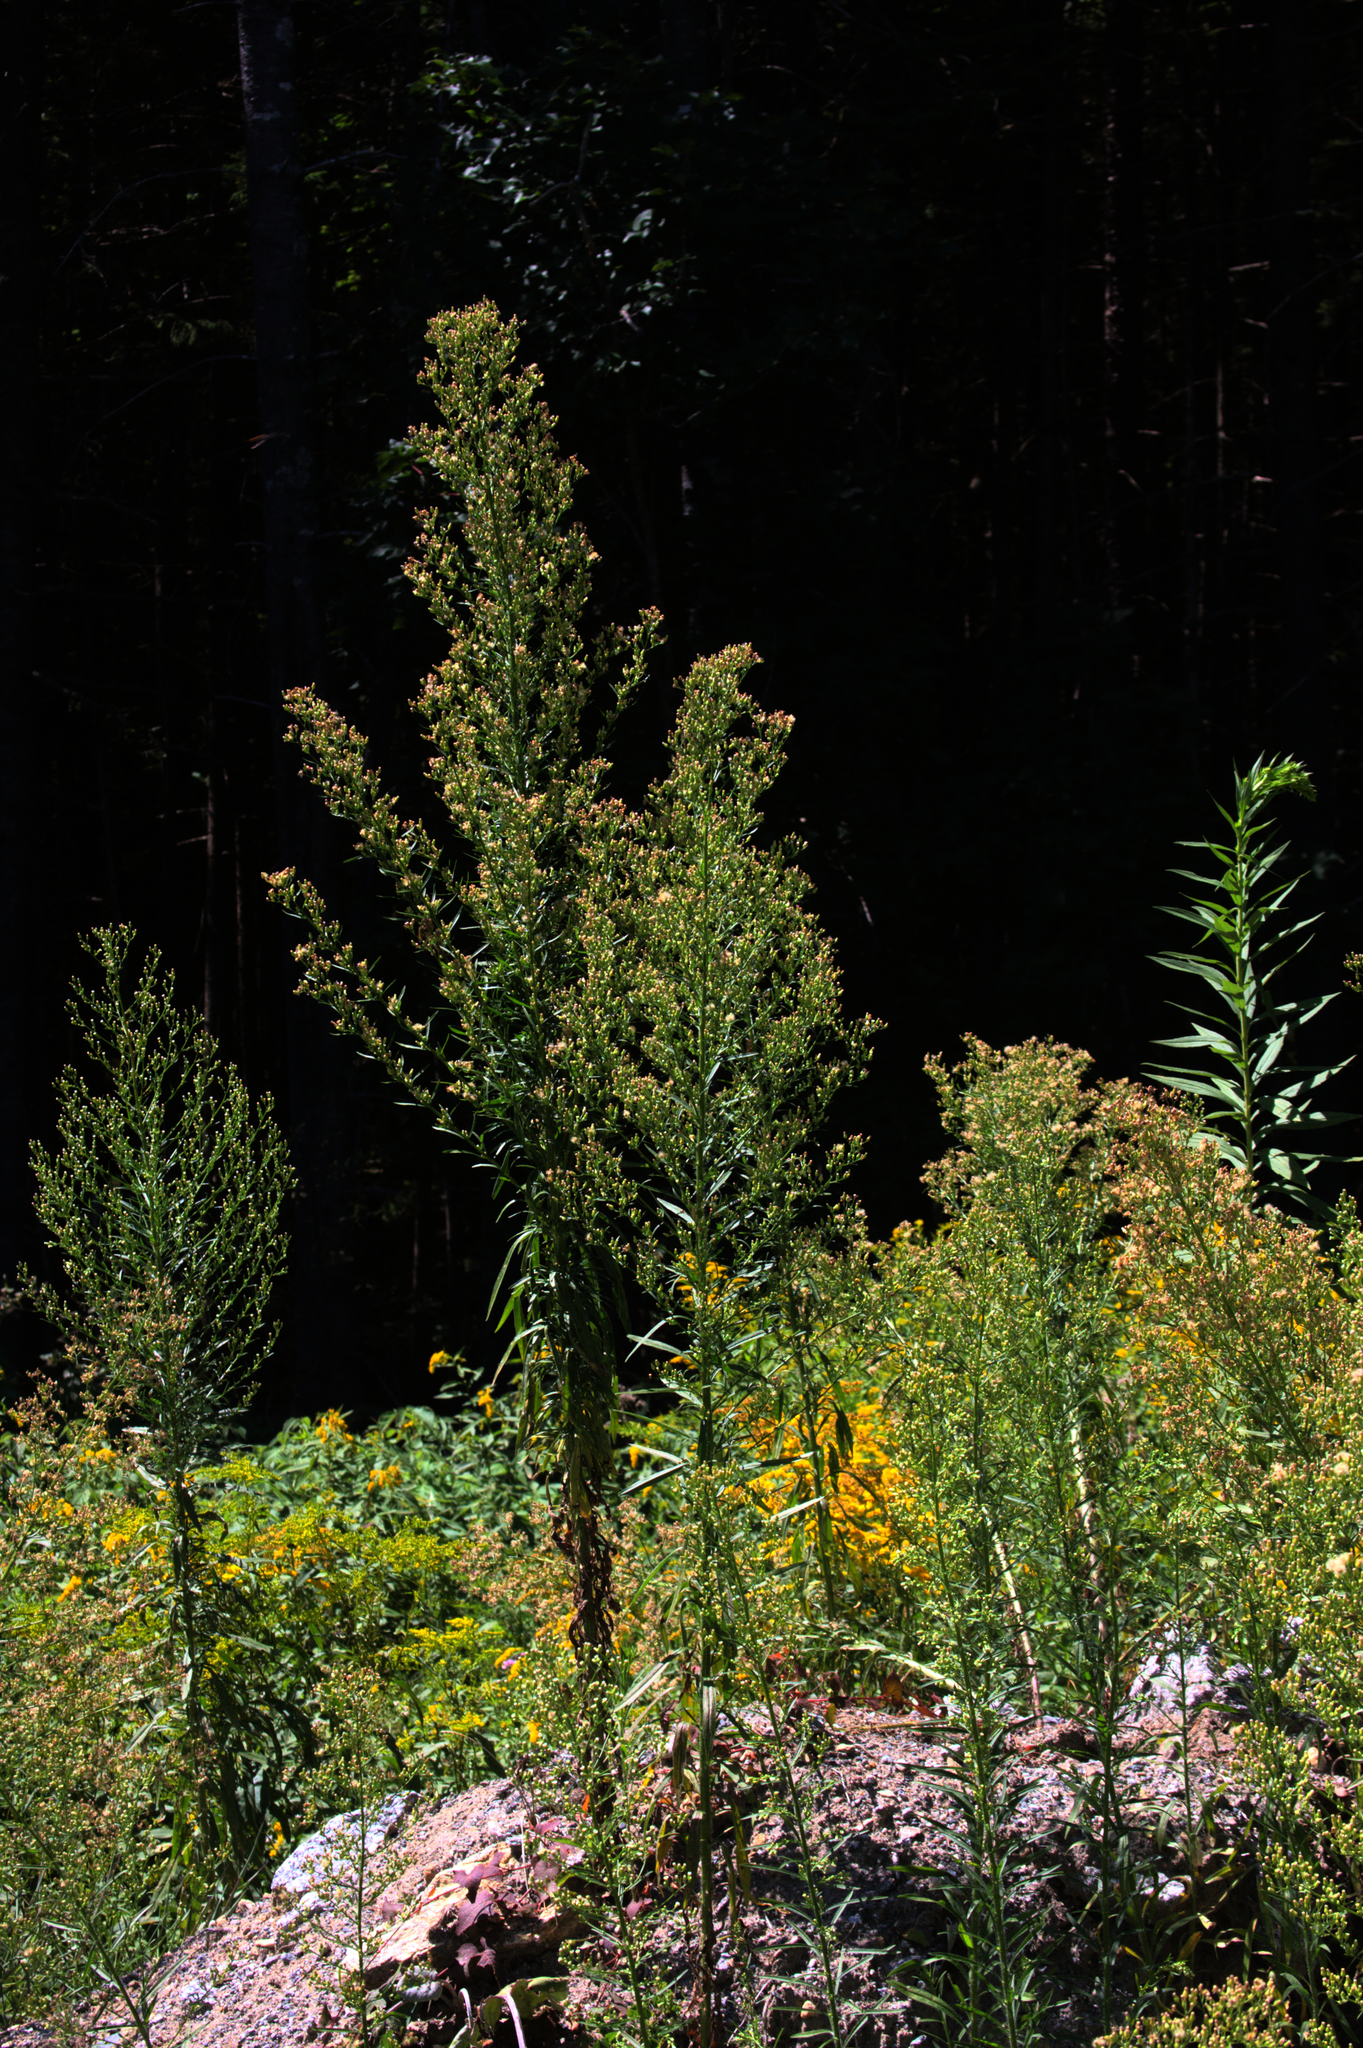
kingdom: Plantae
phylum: Tracheophyta
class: Magnoliopsida
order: Asterales
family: Asteraceae
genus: Erigeron
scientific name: Erigeron canadensis
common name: Canadian fleabane
